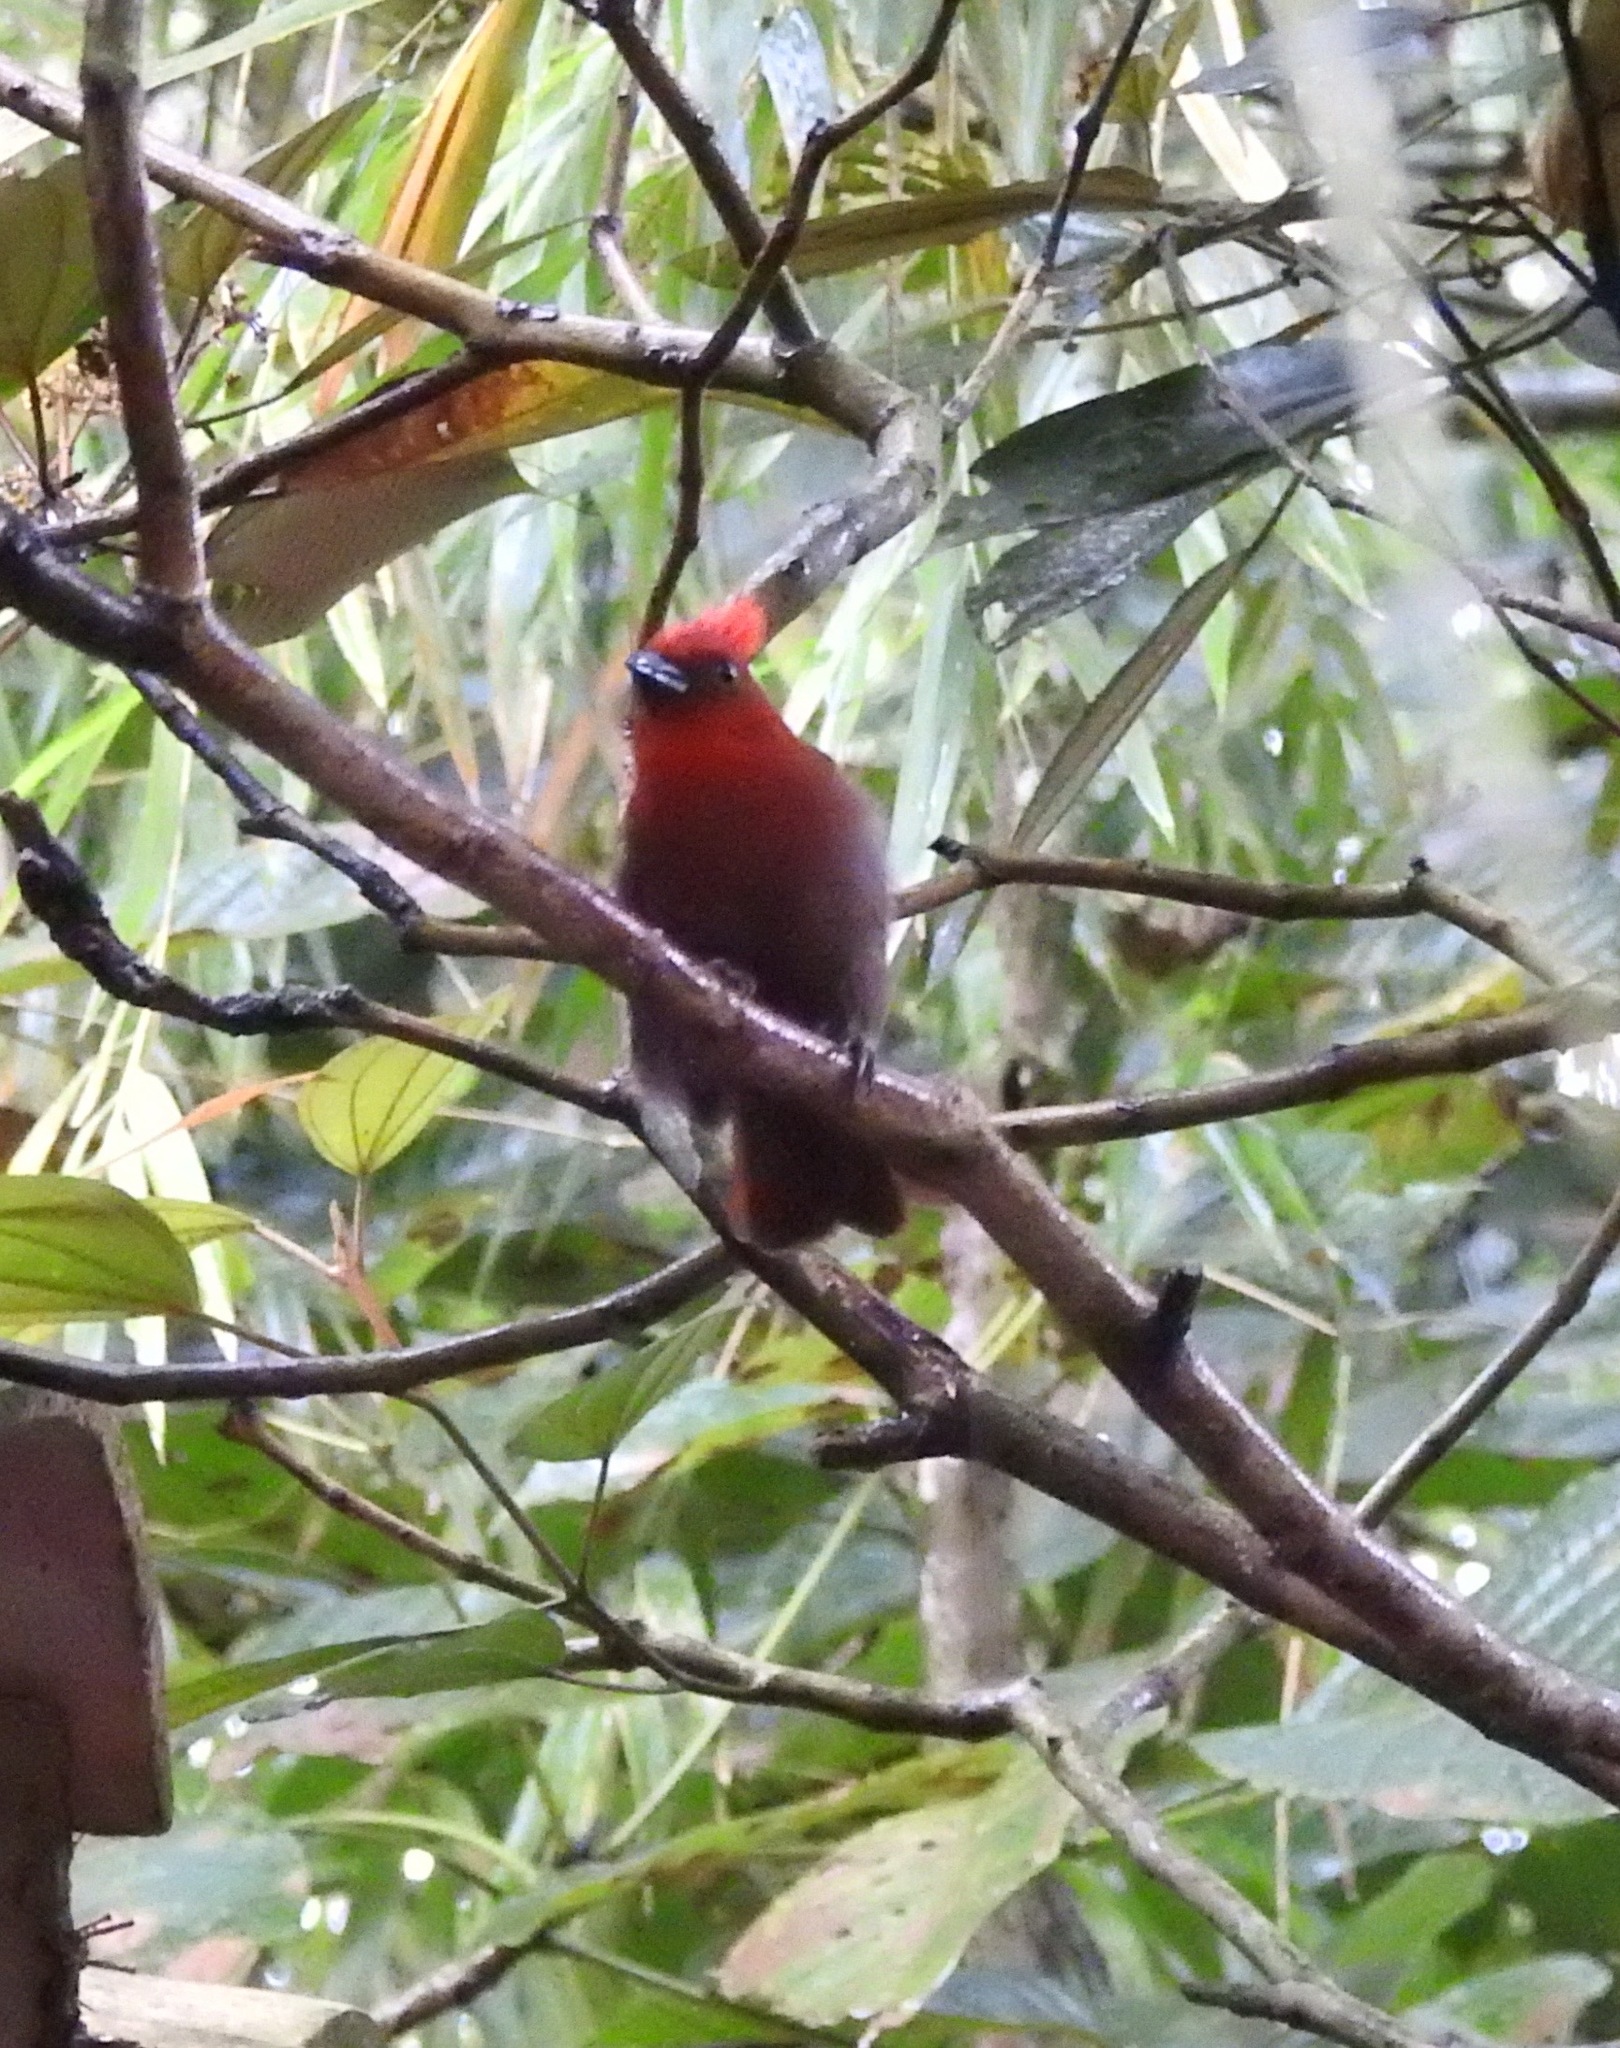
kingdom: Animalia
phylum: Chordata
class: Aves
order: Passeriformes
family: Cardinalidae
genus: Habia
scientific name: Habia cristata
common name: Crested ant tanager
